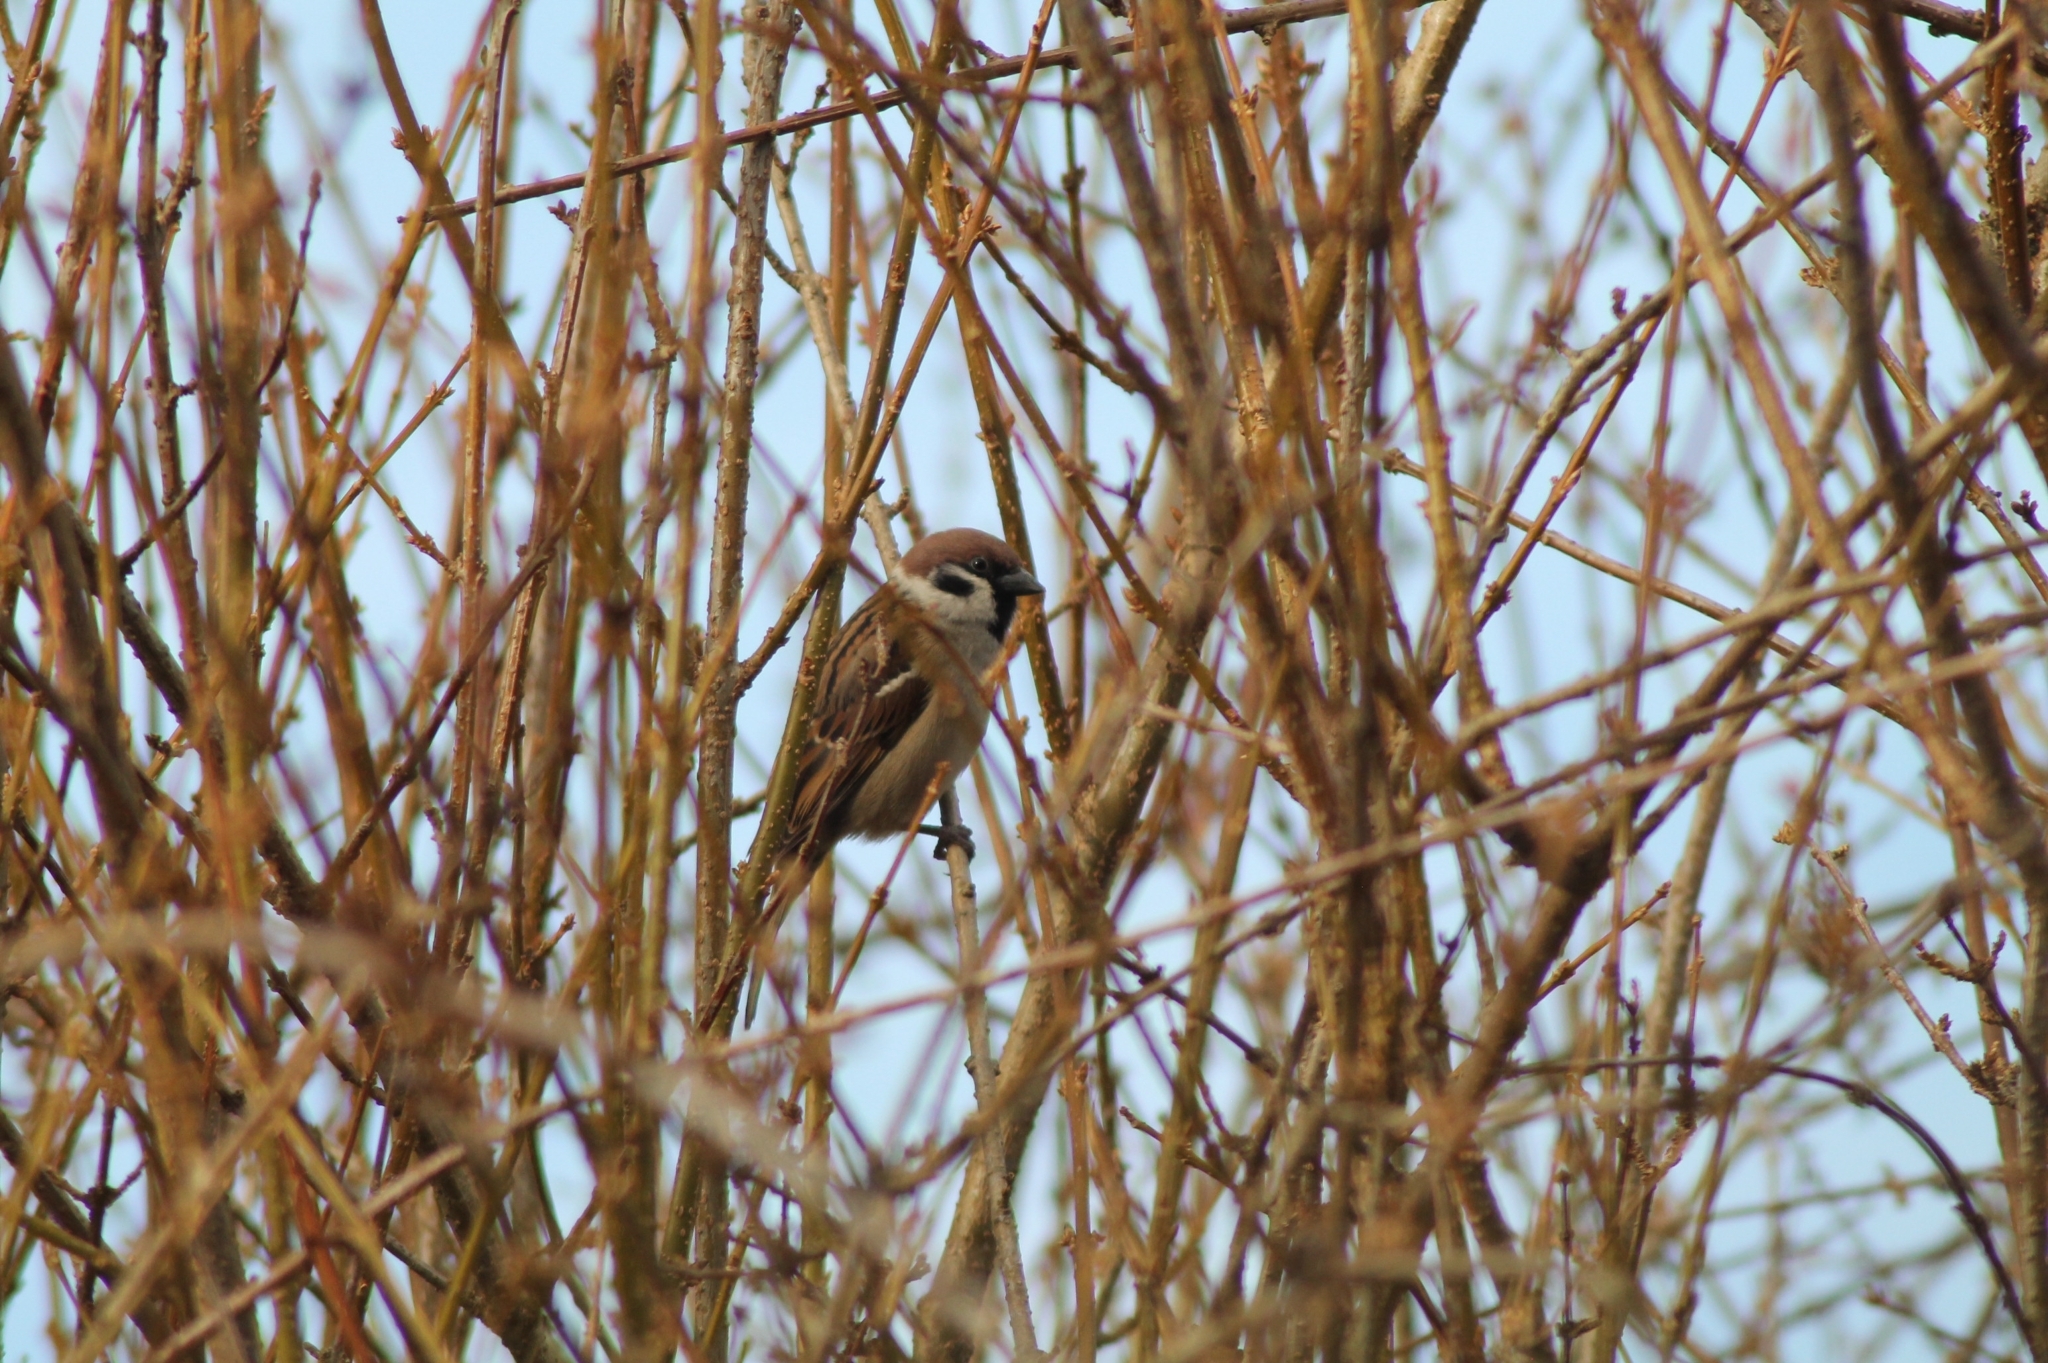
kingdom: Animalia
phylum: Chordata
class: Aves
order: Passeriformes
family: Passeridae
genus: Passer
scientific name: Passer montanus
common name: Eurasian tree sparrow
